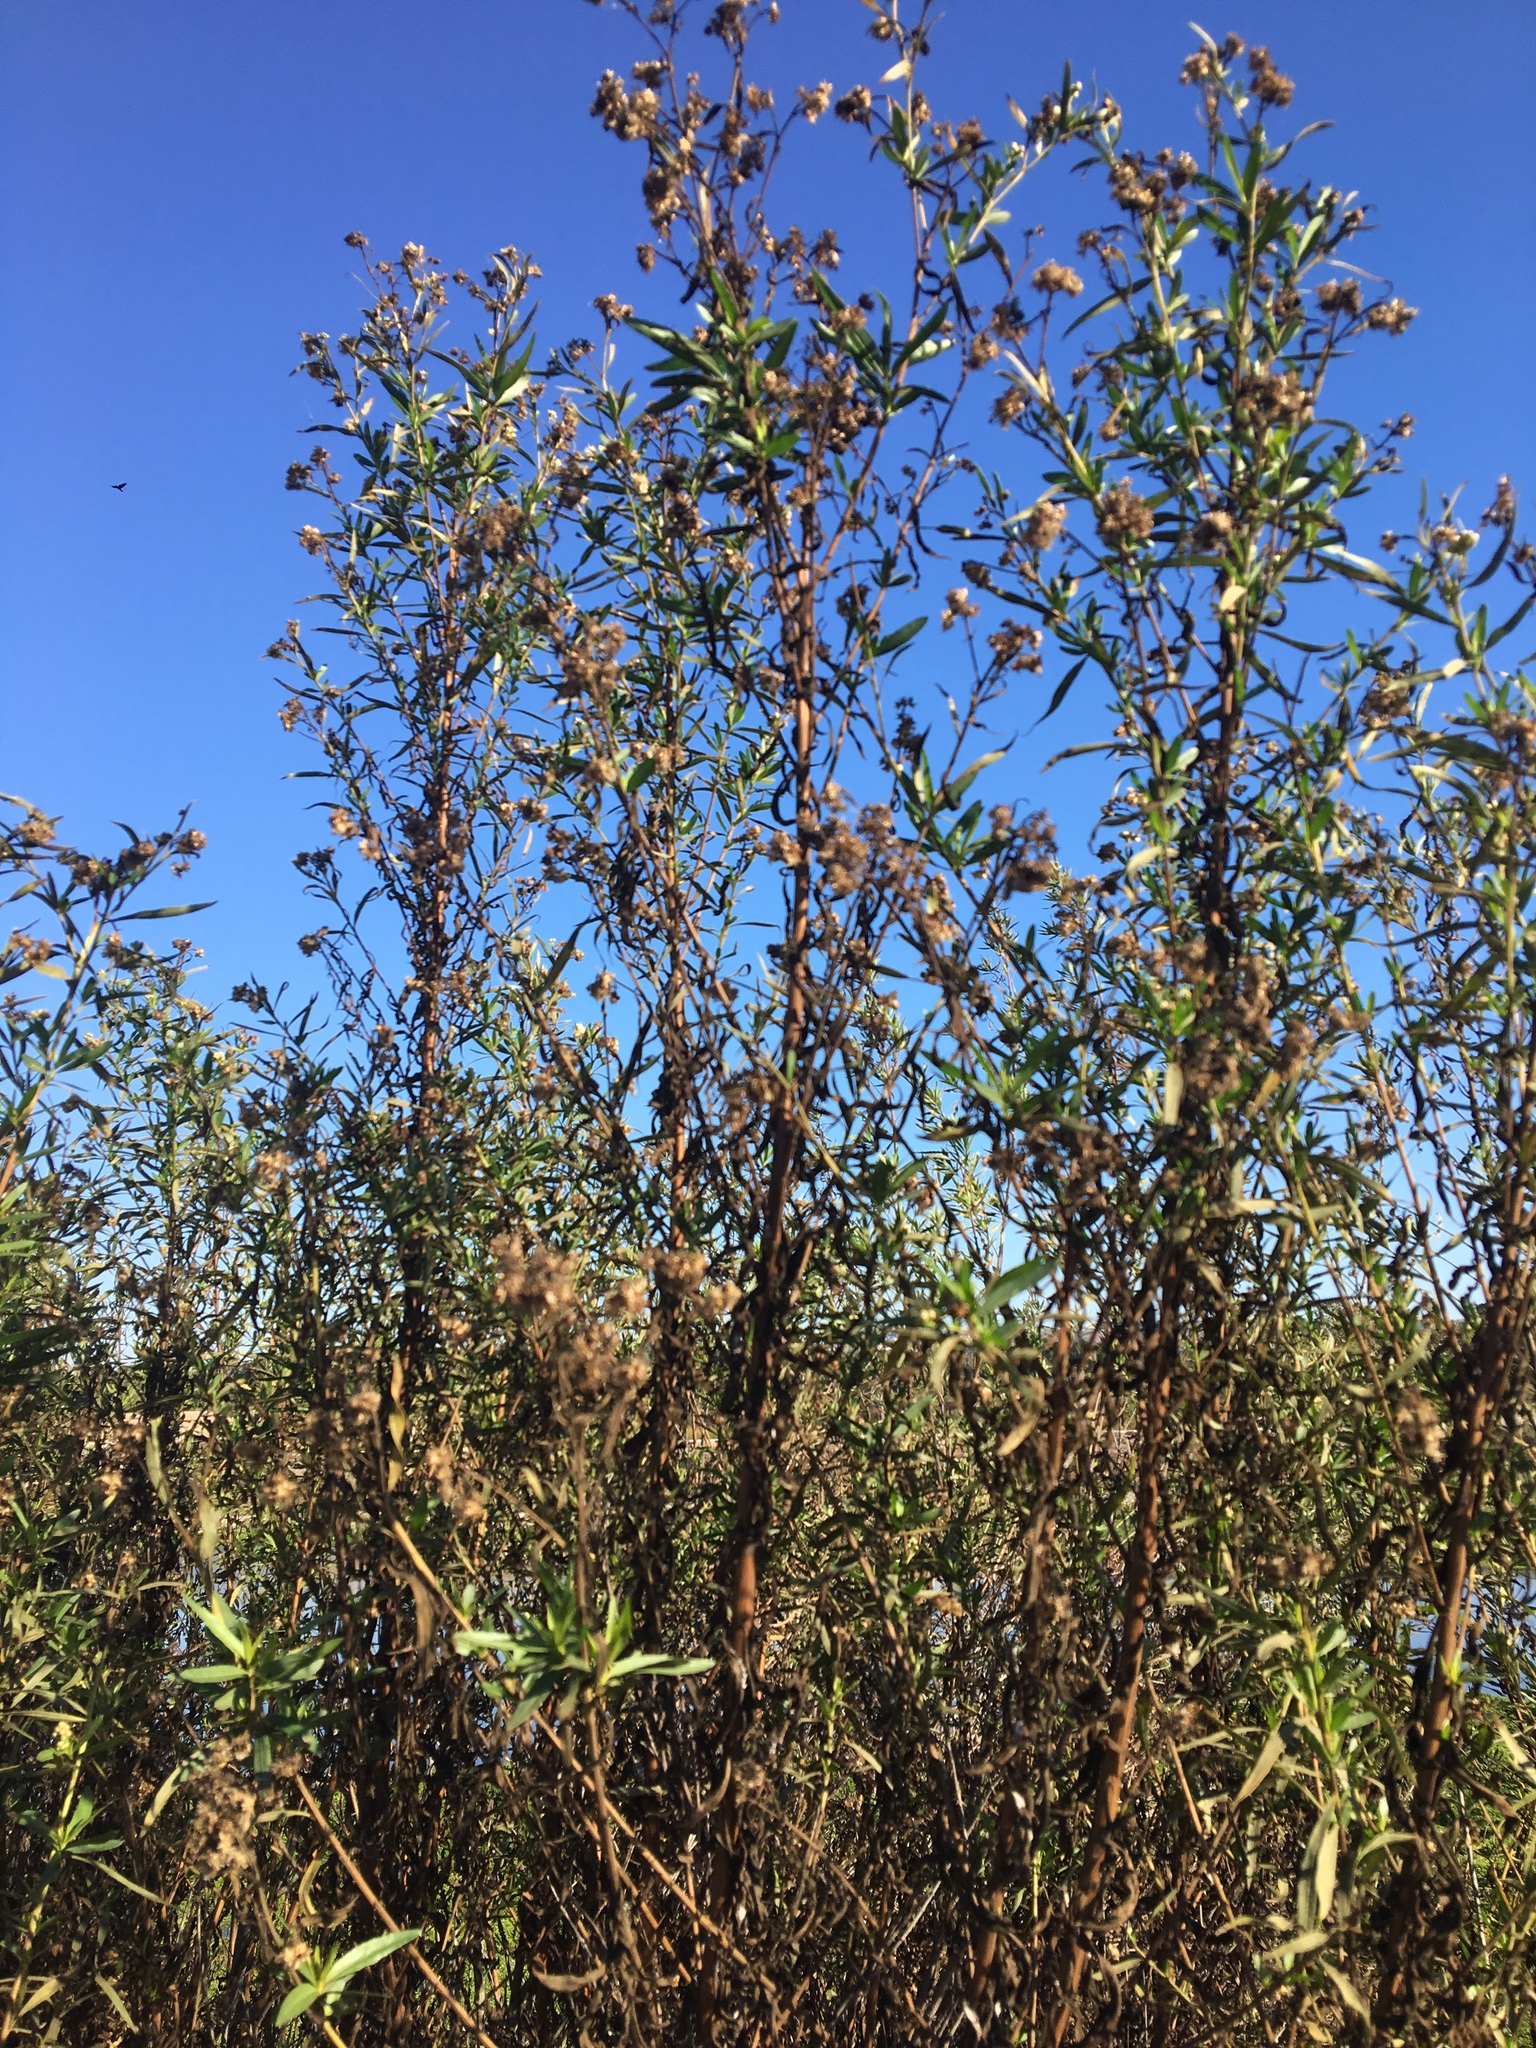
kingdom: Plantae
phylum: Tracheophyta
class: Magnoliopsida
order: Asterales
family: Asteraceae
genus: Baccharis
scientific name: Baccharis salicifolia
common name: Sticky baccharis
